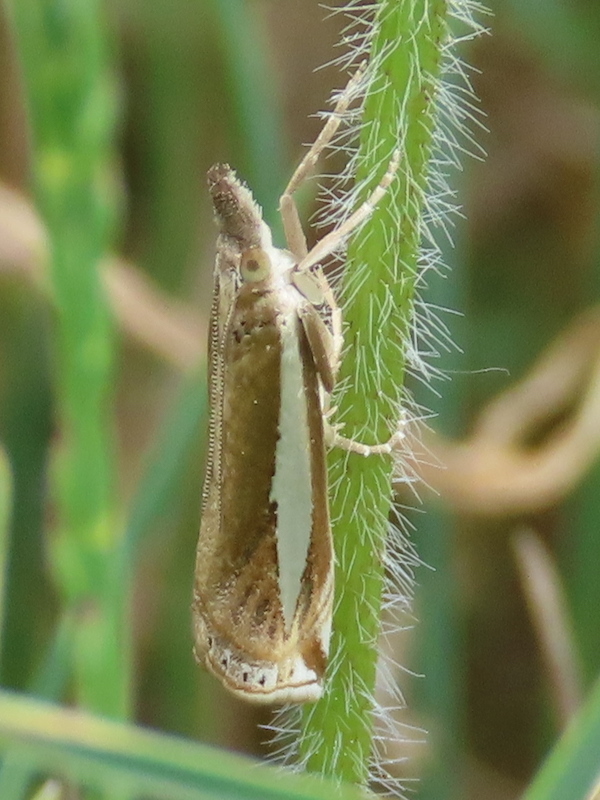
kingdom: Animalia
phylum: Arthropoda
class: Insecta
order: Lepidoptera
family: Crambidae
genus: Crambus
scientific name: Crambus praefectellus
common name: Common grass-veneer
